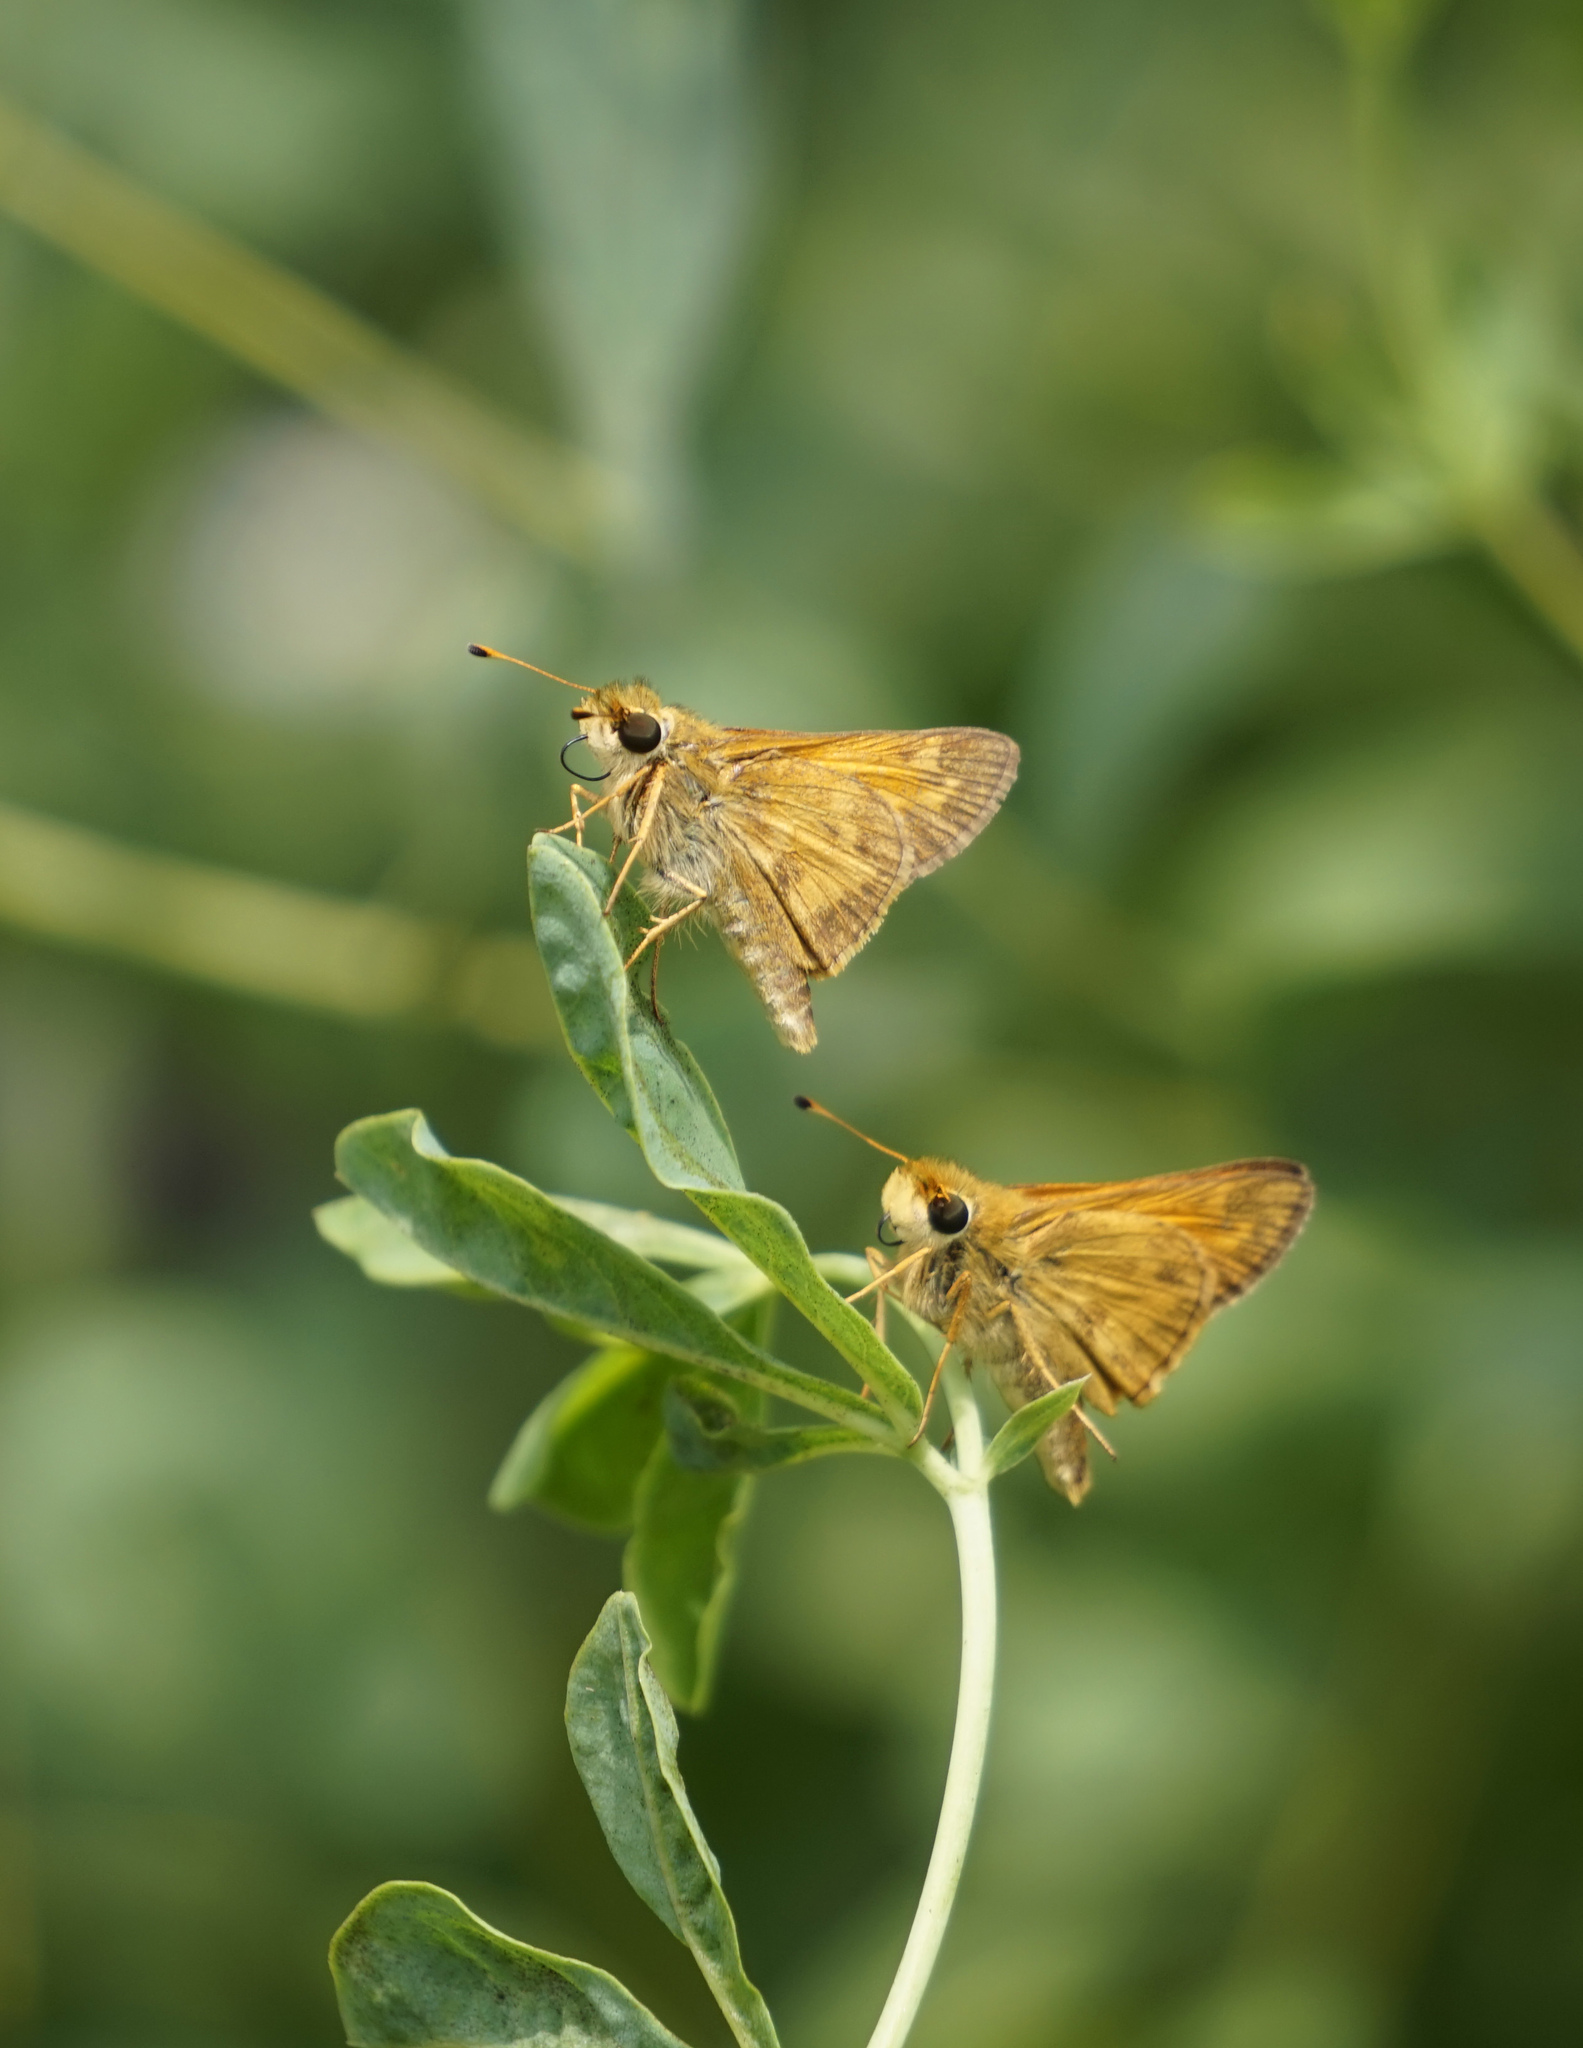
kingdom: Animalia
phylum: Arthropoda
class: Insecta
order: Lepidoptera
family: Hesperiidae
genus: Atalopedes
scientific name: Atalopedes
